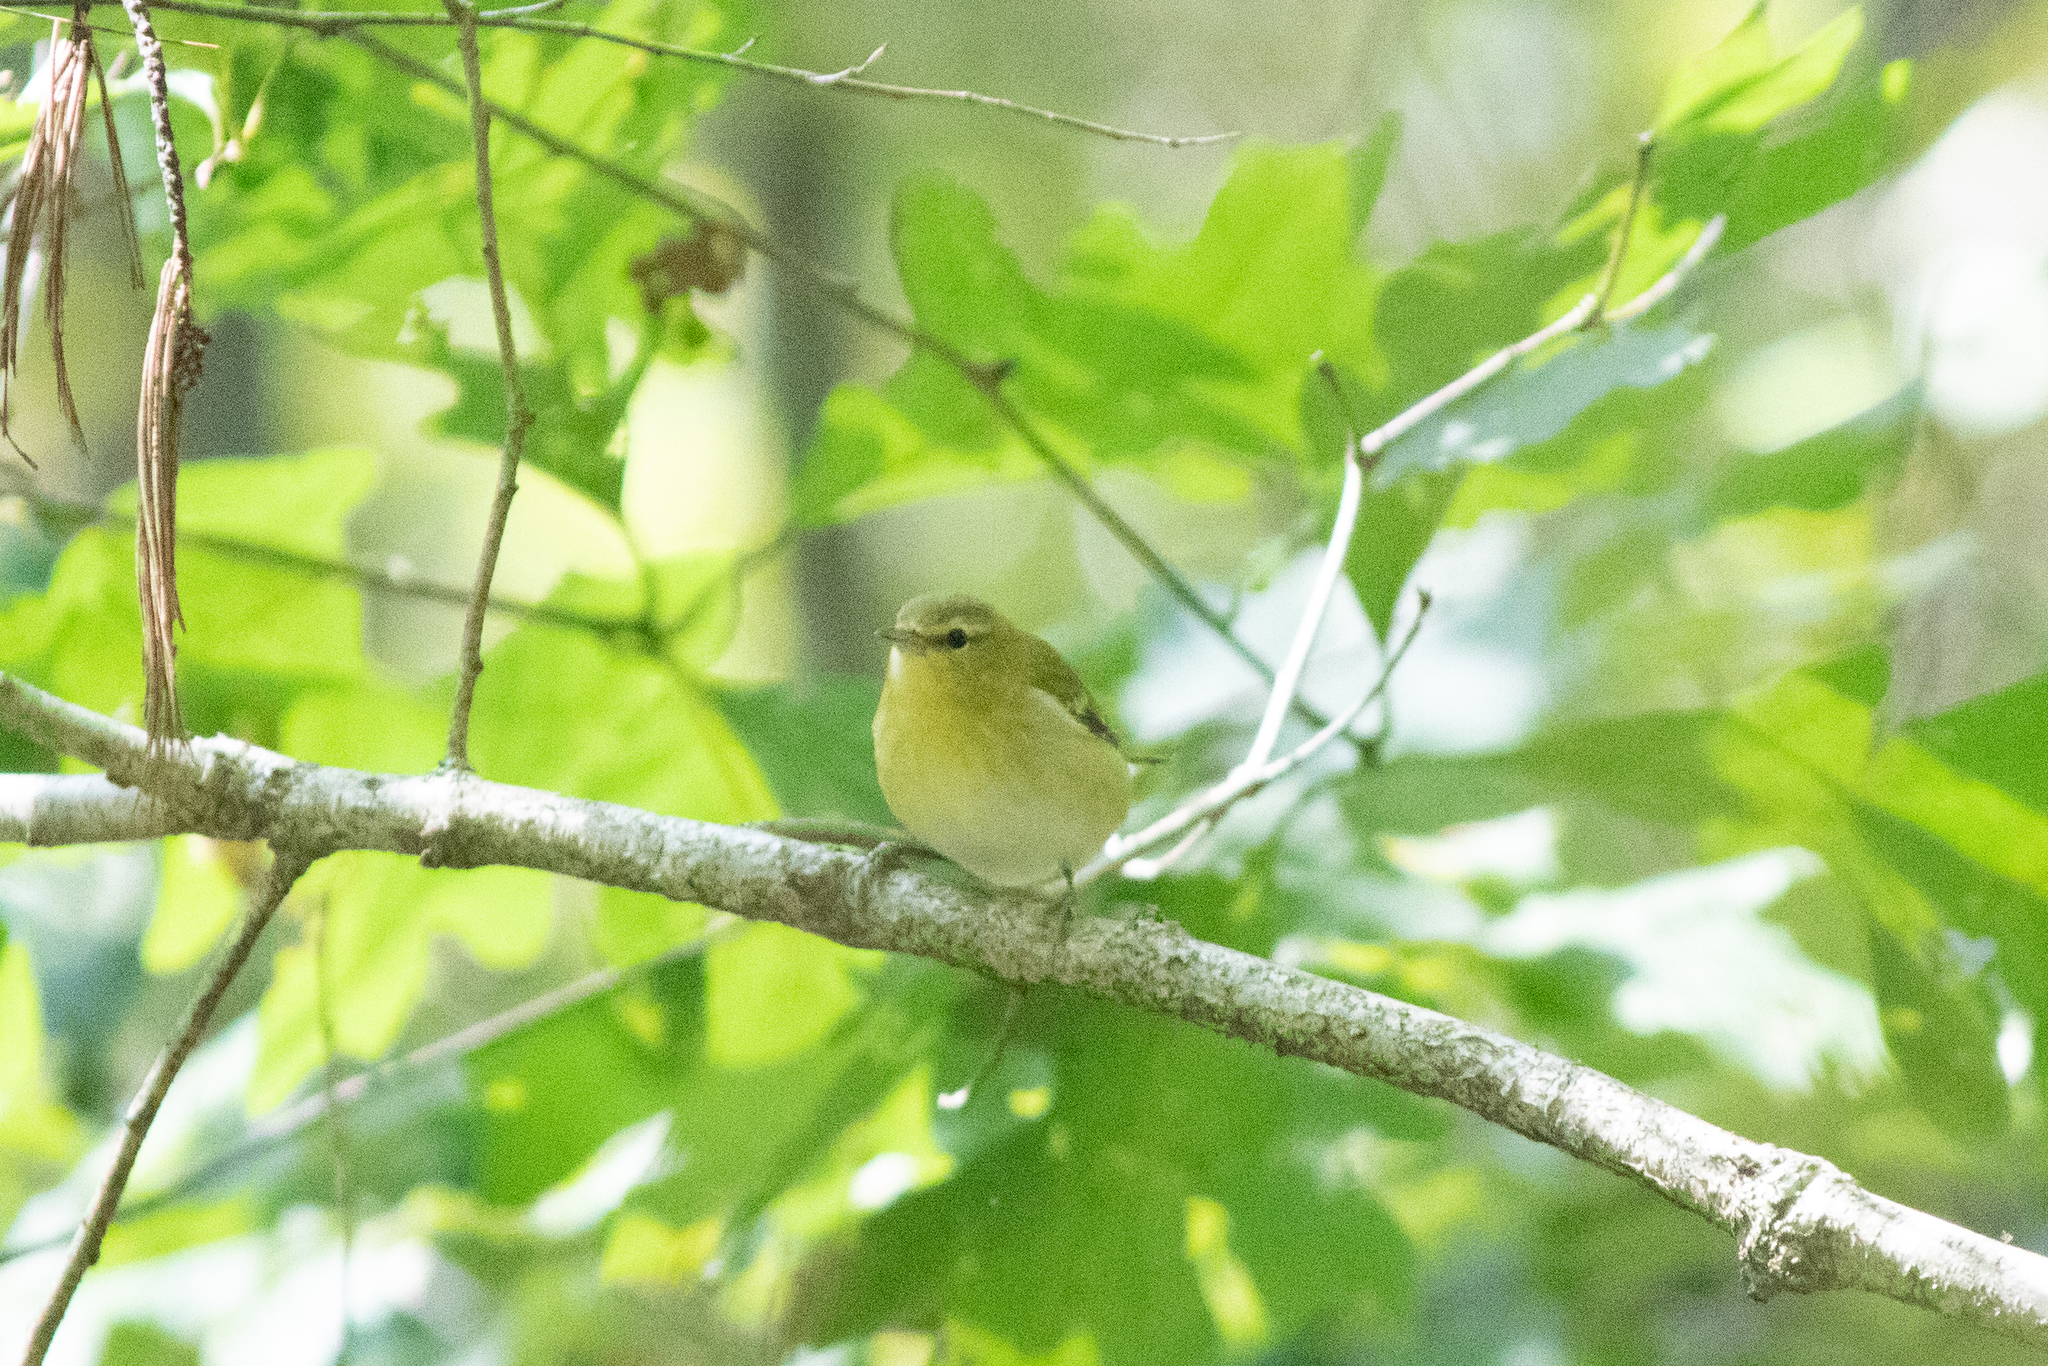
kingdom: Animalia
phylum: Chordata
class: Aves
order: Passeriformes
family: Parulidae
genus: Leiothlypis
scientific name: Leiothlypis peregrina
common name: Tennessee warbler
